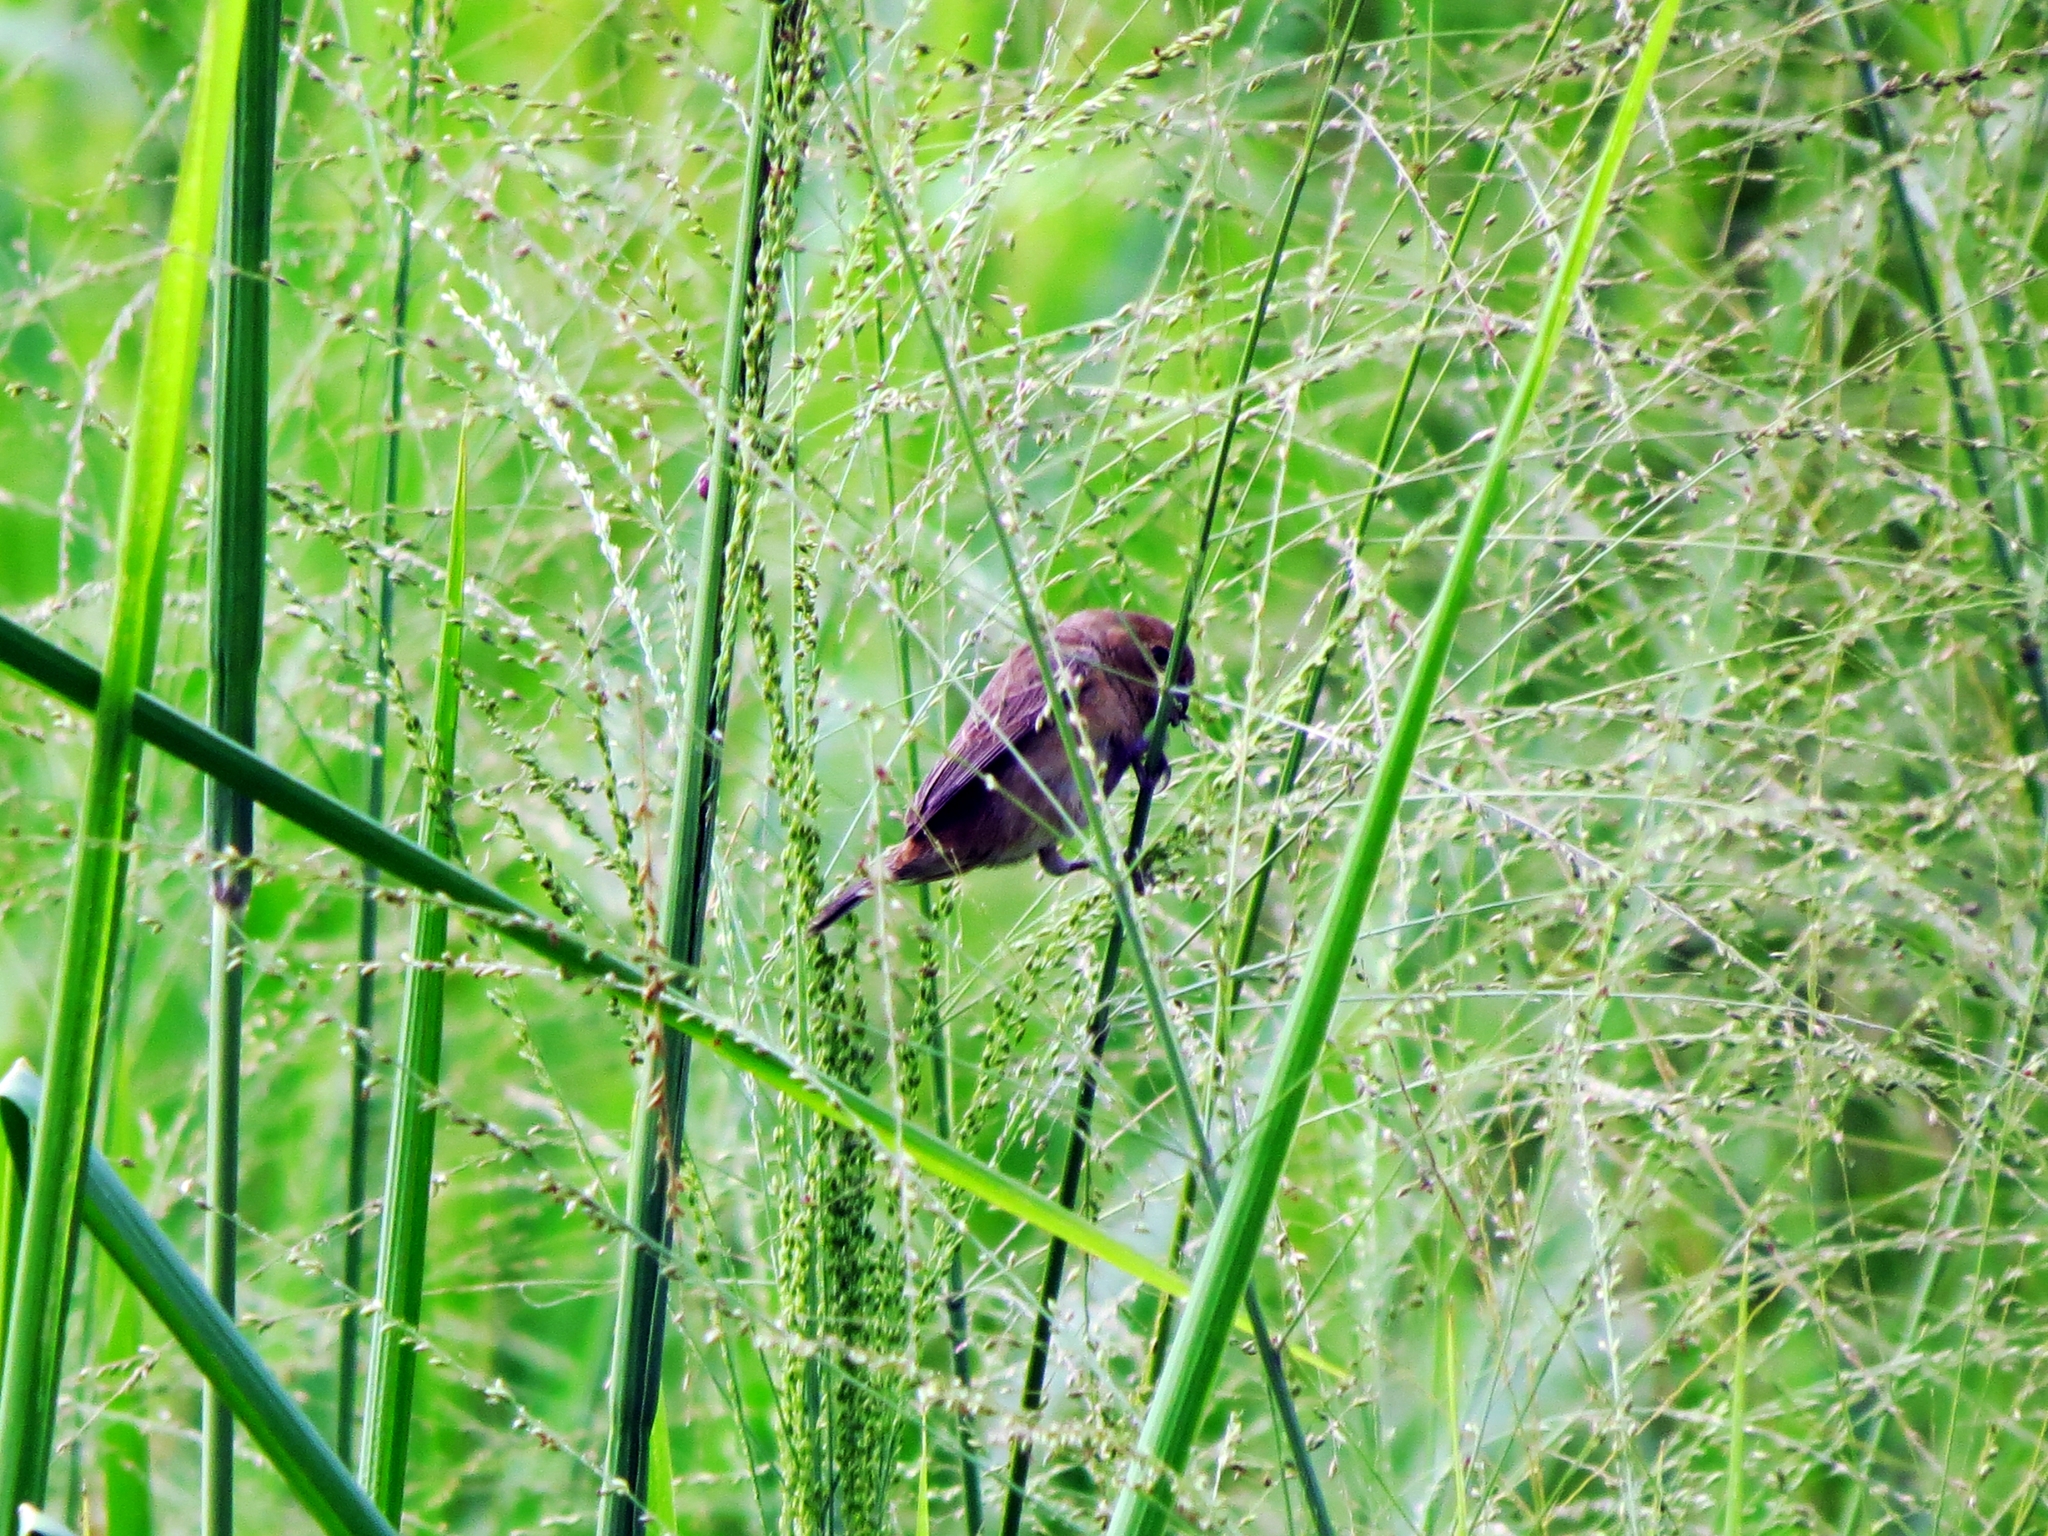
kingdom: Animalia
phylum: Chordata
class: Aves
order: Passeriformes
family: Thraupidae
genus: Sporophila
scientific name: Sporophila nigricollis
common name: Yellow-bellied seedeater
